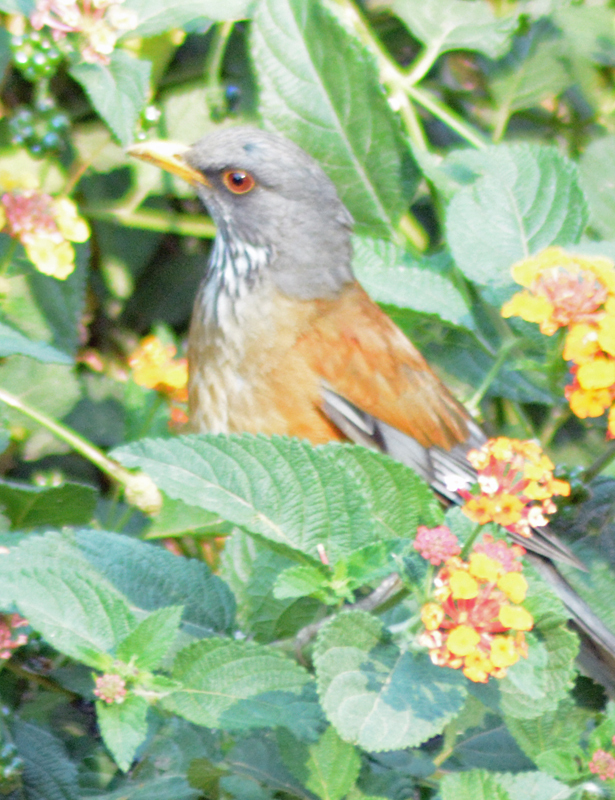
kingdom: Animalia
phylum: Chordata
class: Aves
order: Passeriformes
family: Turdidae
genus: Turdus
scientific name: Turdus rufopalliatus
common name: Rufous-backed robin
